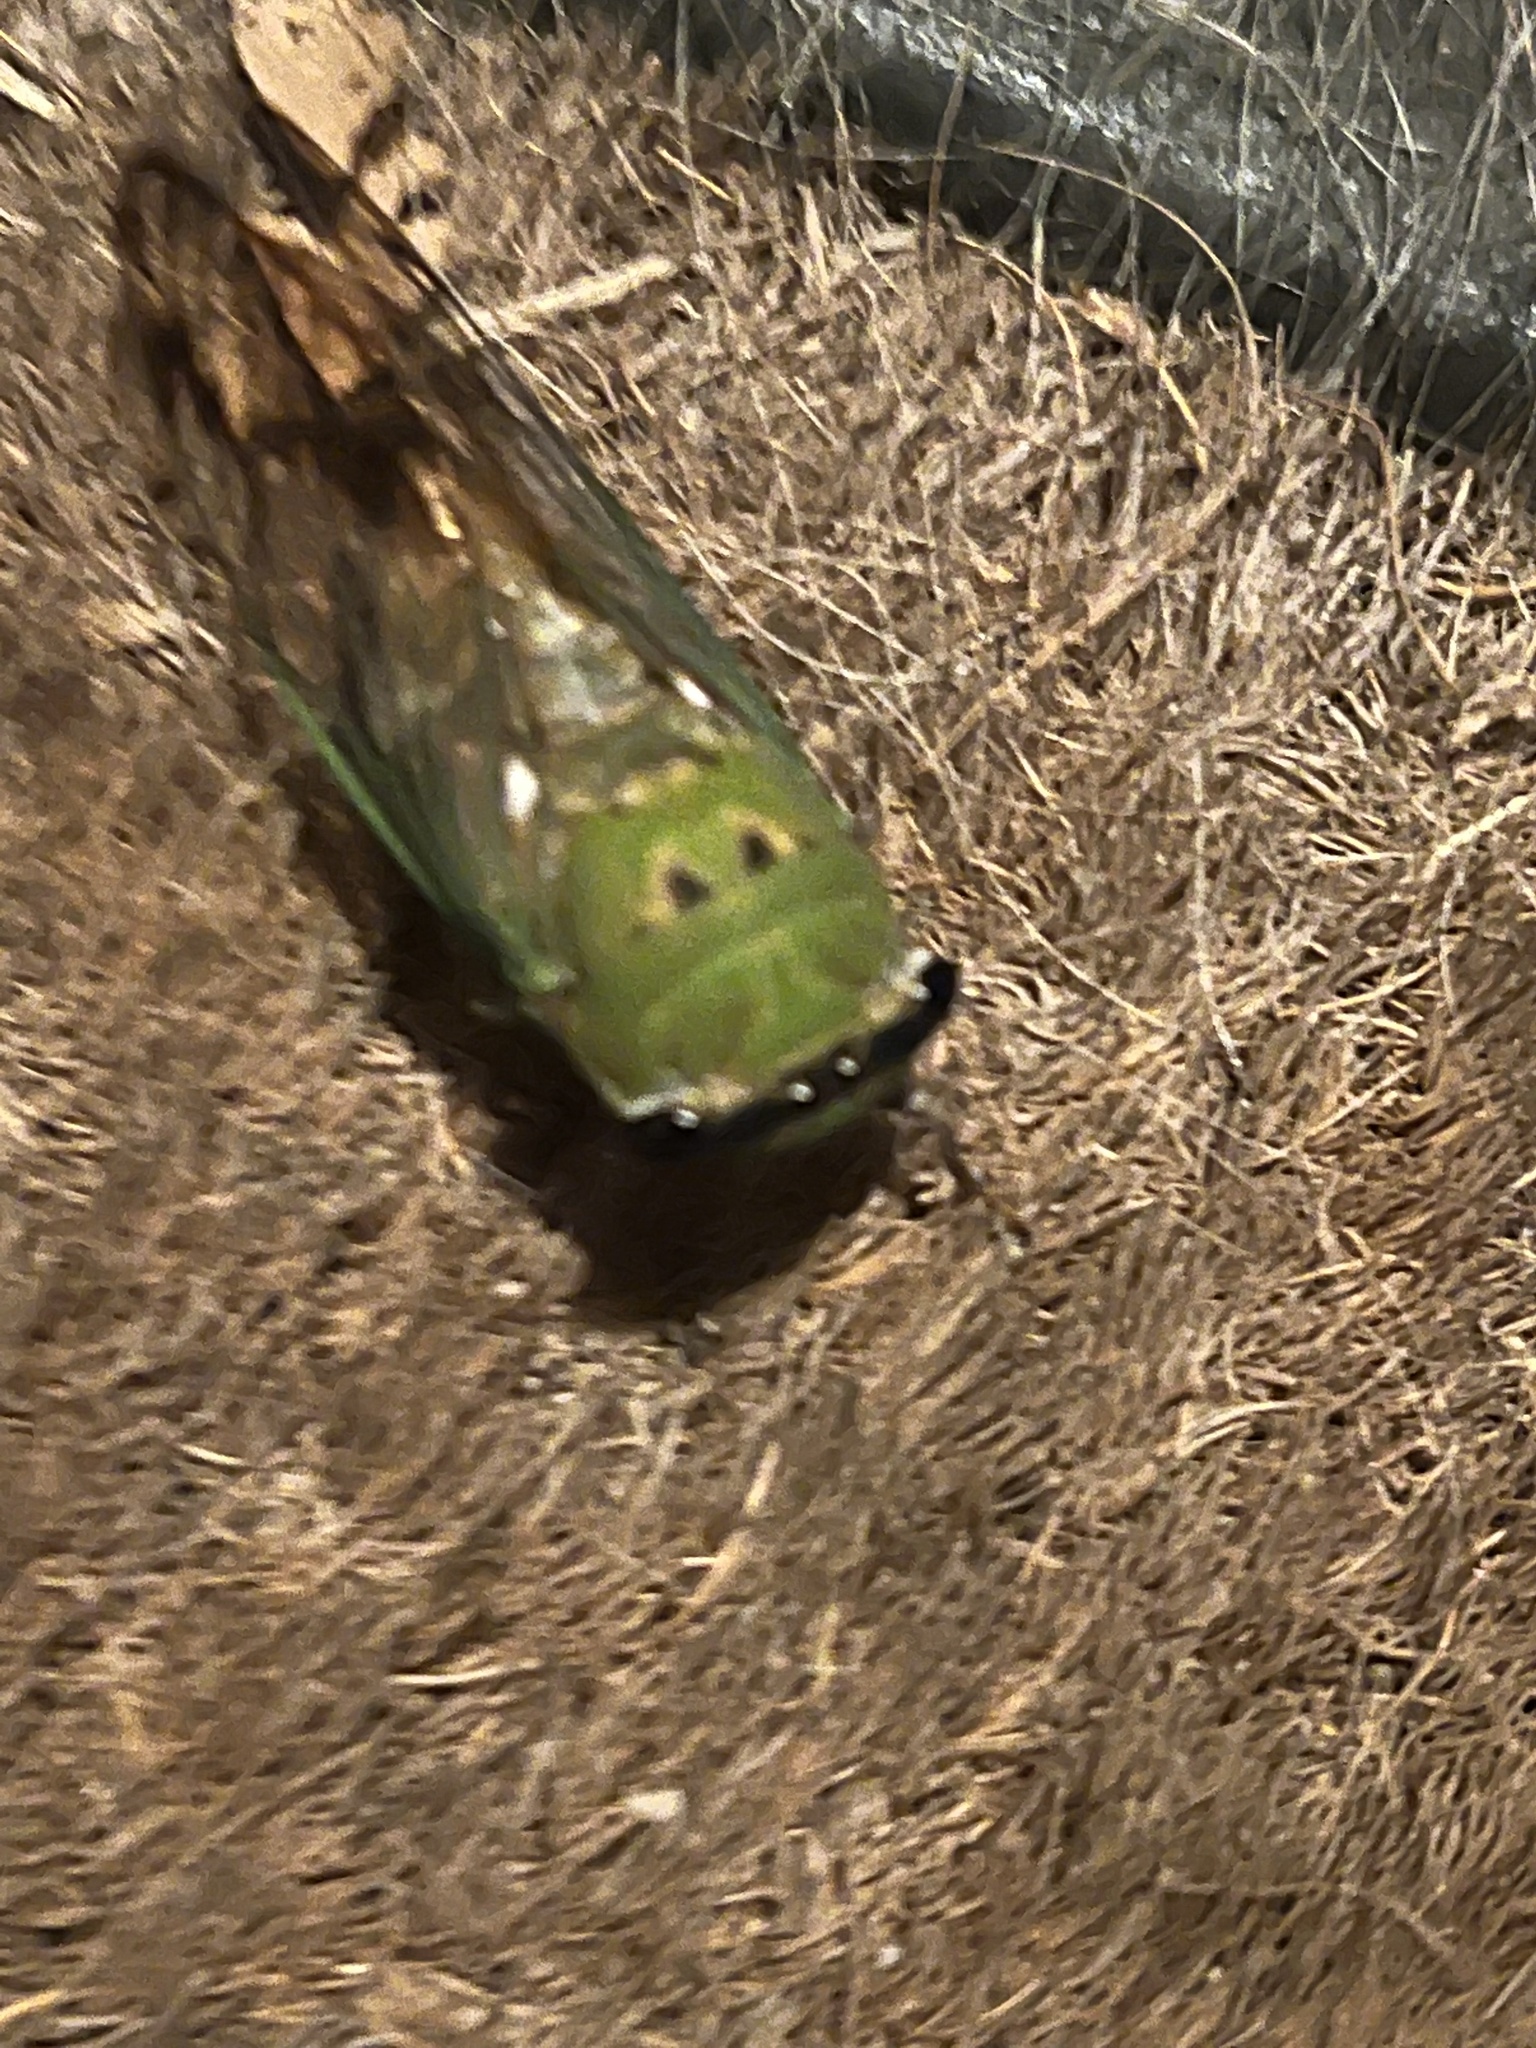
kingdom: Animalia
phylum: Arthropoda
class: Insecta
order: Hemiptera
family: Cicadidae
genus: Neotibicen
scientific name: Neotibicen superbus
